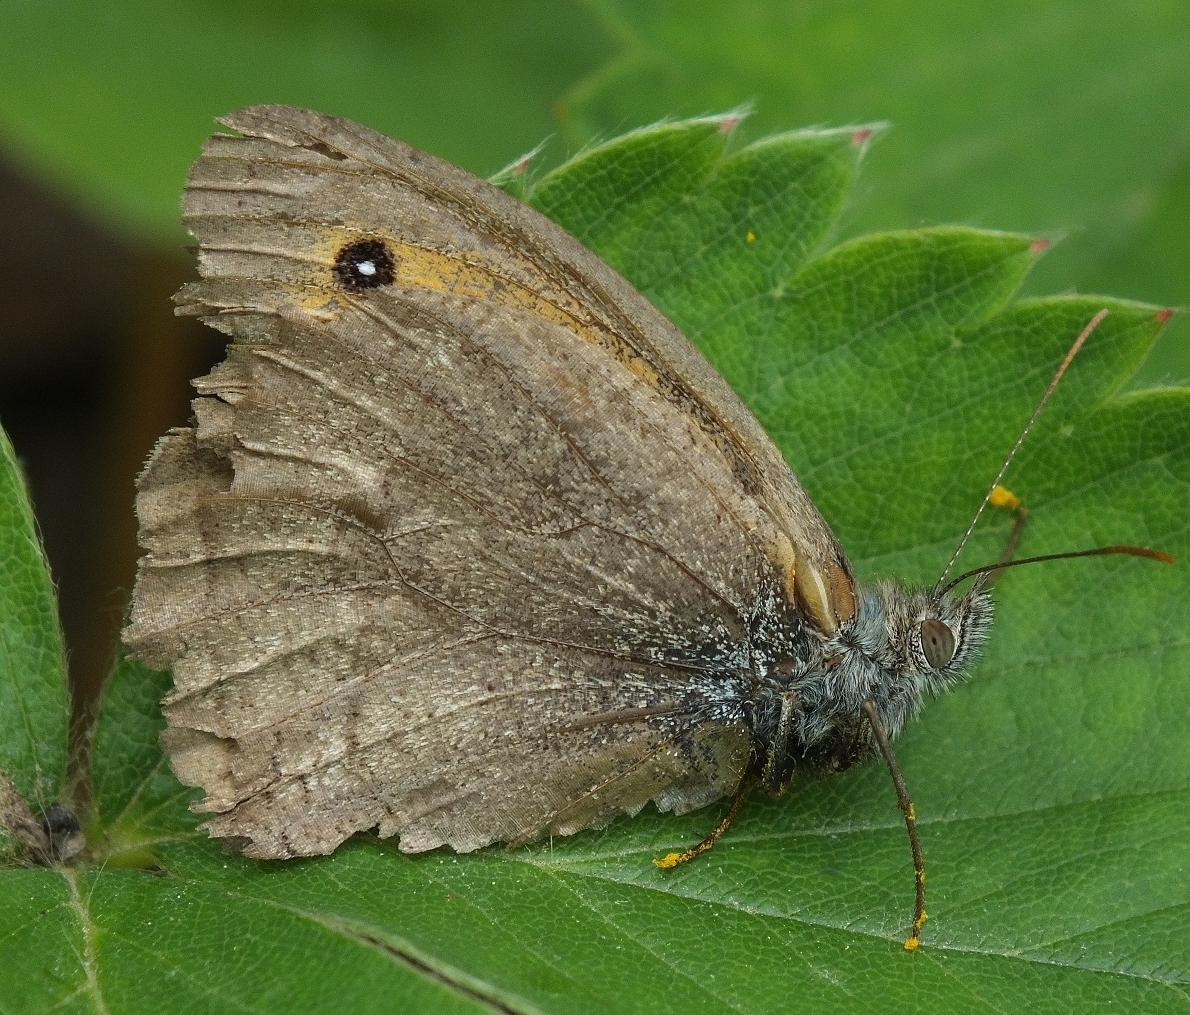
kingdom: Animalia
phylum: Arthropoda
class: Insecta
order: Lepidoptera
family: Nymphalidae
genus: Hyponephele
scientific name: Hyponephele lupinus
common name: Oriental meadow brown
